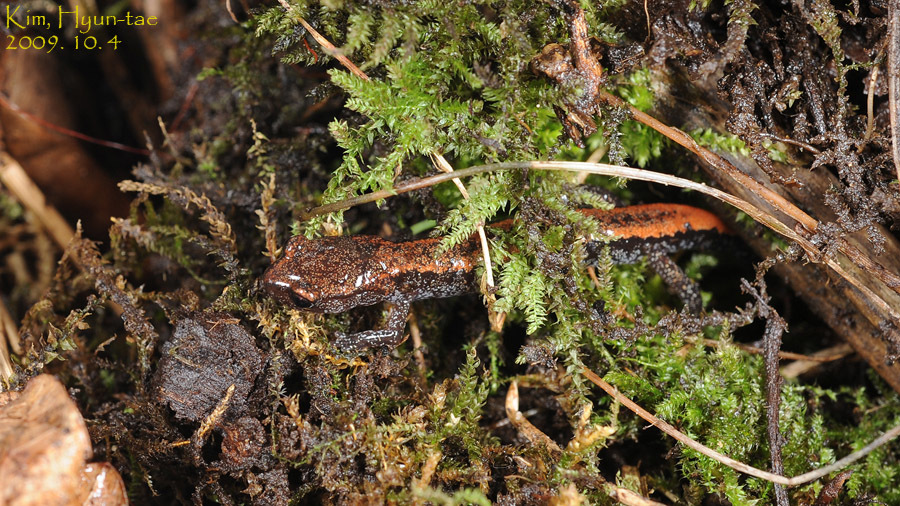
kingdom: Animalia
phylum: Chordata
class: Amphibia
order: Caudata
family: Plethodontidae
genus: Karsenia
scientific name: Karsenia koreana
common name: Korean crevice salamander
